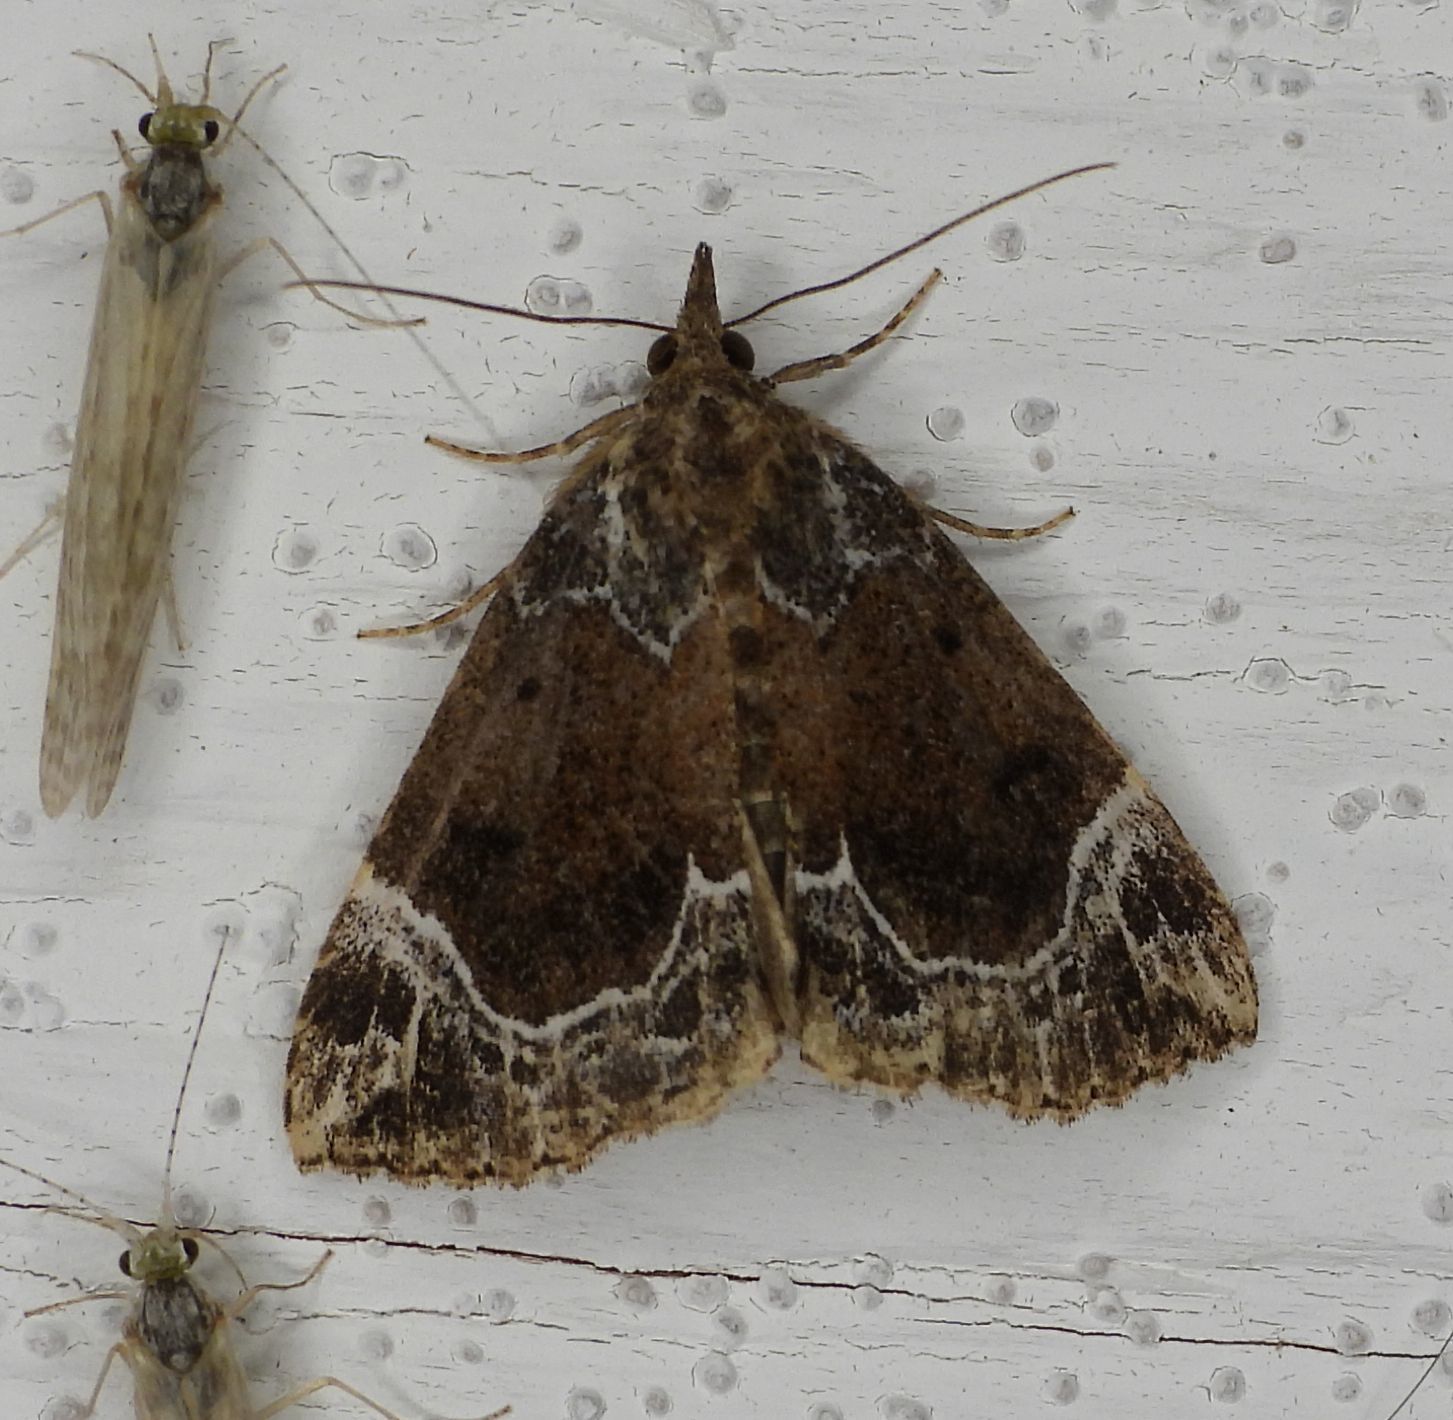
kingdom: Animalia
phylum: Arthropoda
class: Insecta
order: Lepidoptera
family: Erebidae
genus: Hypena
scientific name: Hypena abalienalis
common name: White-lined snout
